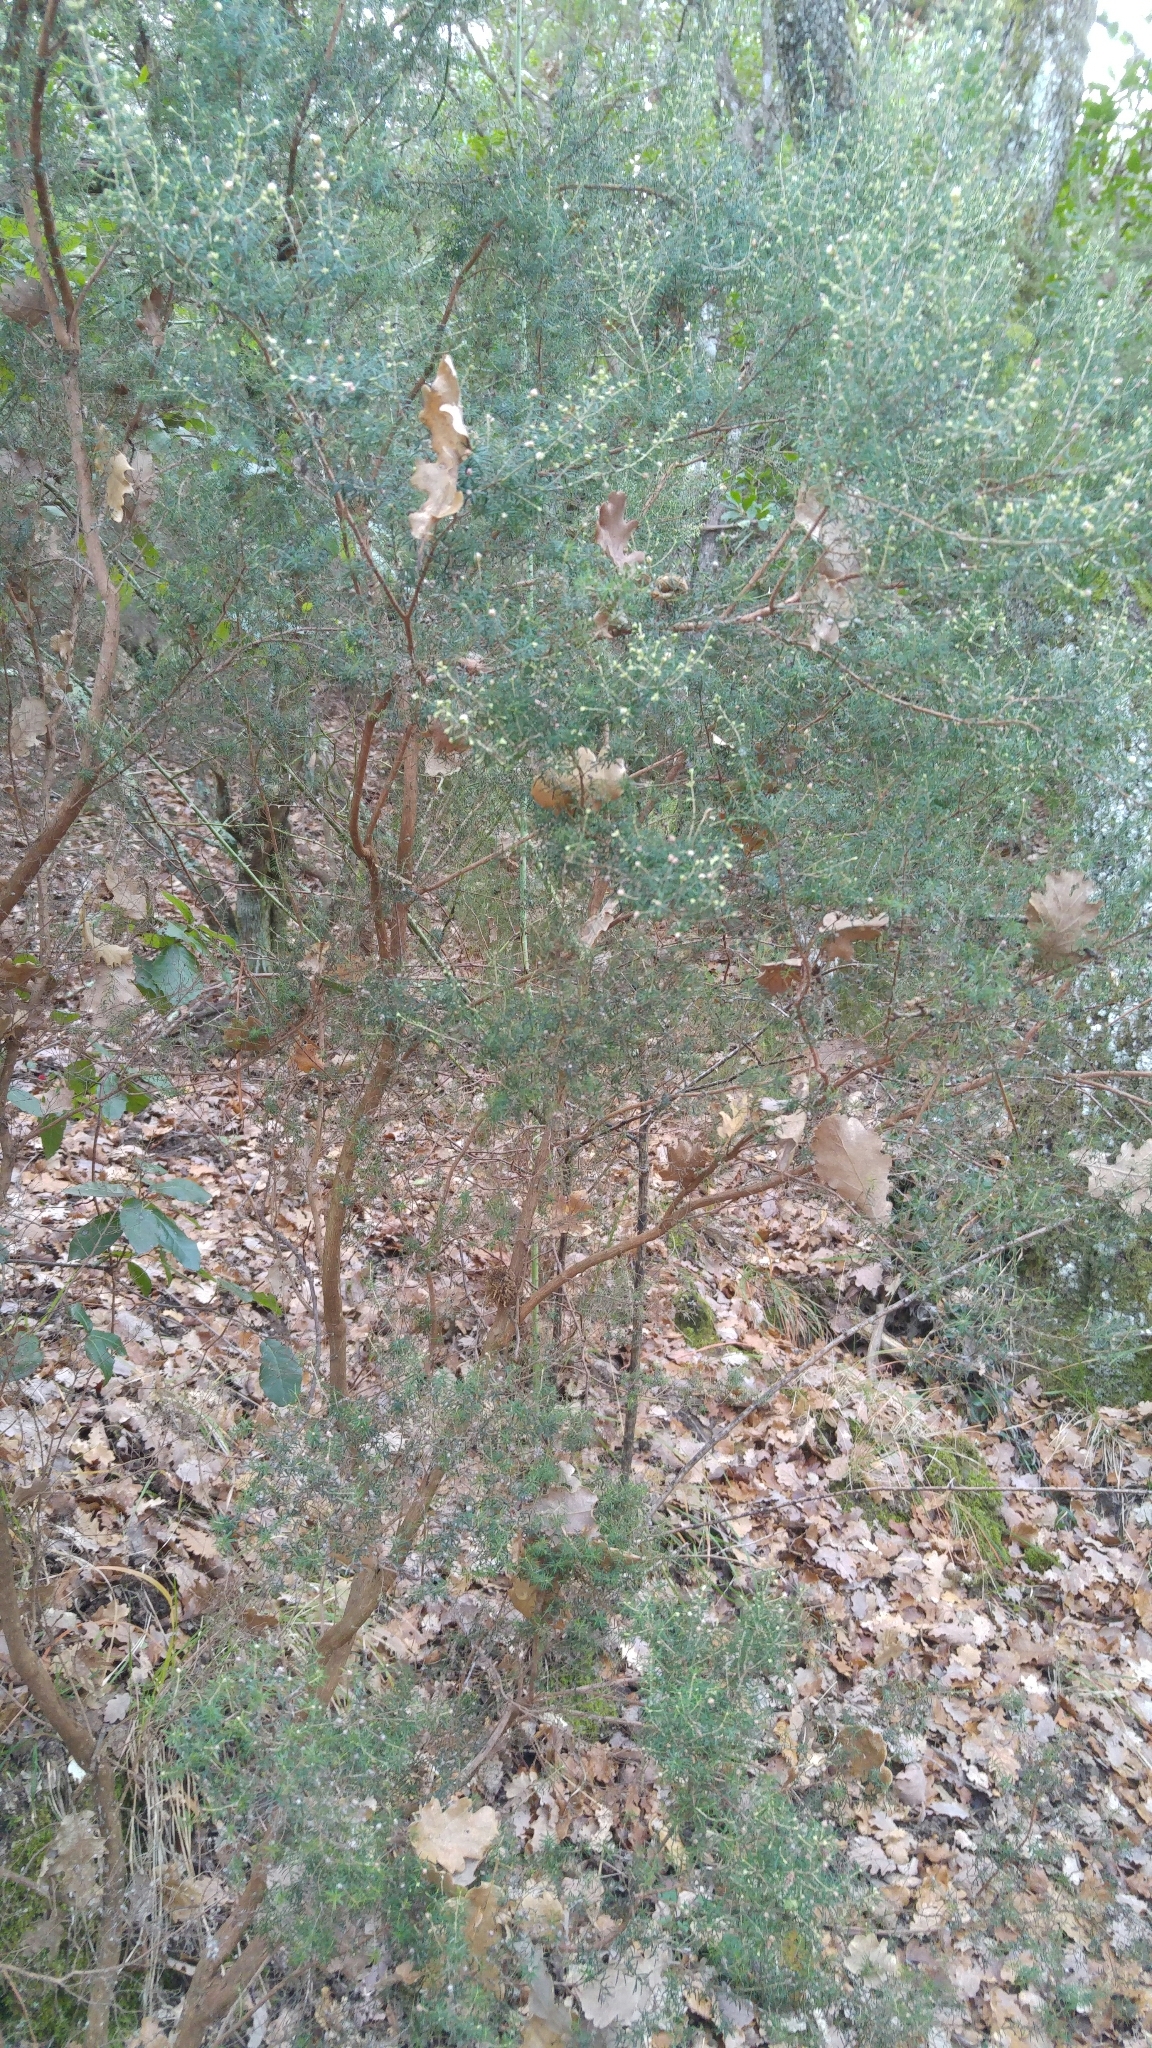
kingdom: Plantae
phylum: Tracheophyta
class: Magnoliopsida
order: Ericales
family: Ericaceae
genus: Erica
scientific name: Erica arborea
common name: Tree heath
